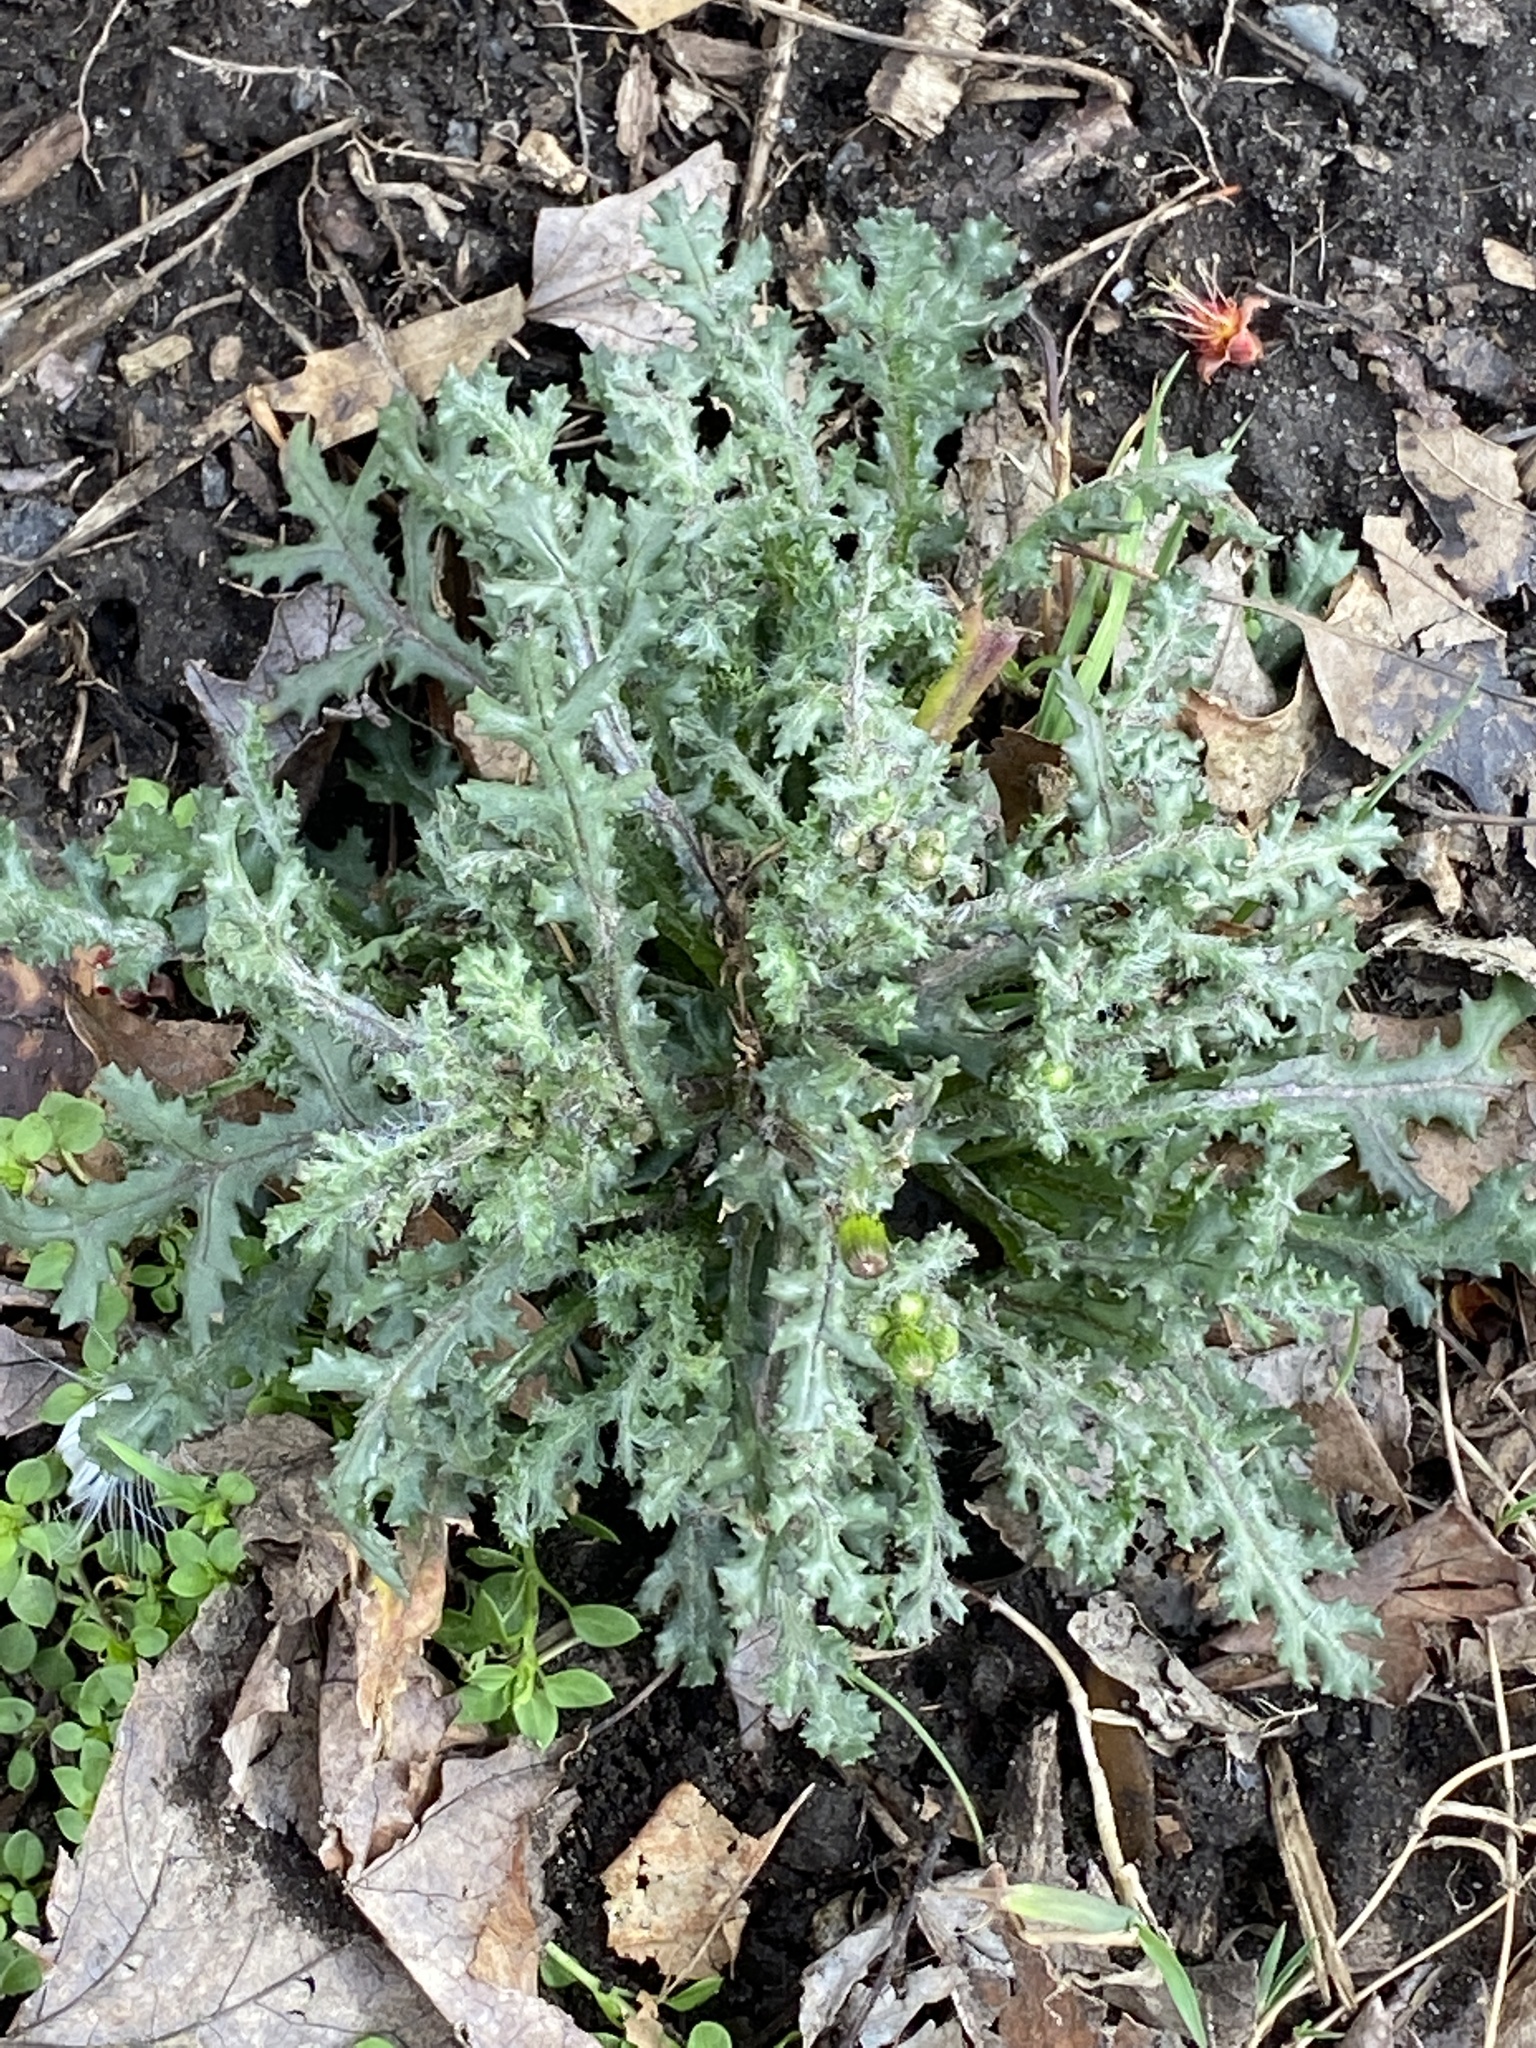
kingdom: Plantae
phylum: Tracheophyta
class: Magnoliopsida
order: Asterales
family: Asteraceae
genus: Senecio
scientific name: Senecio vulgaris
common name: Old-man-in-the-spring
